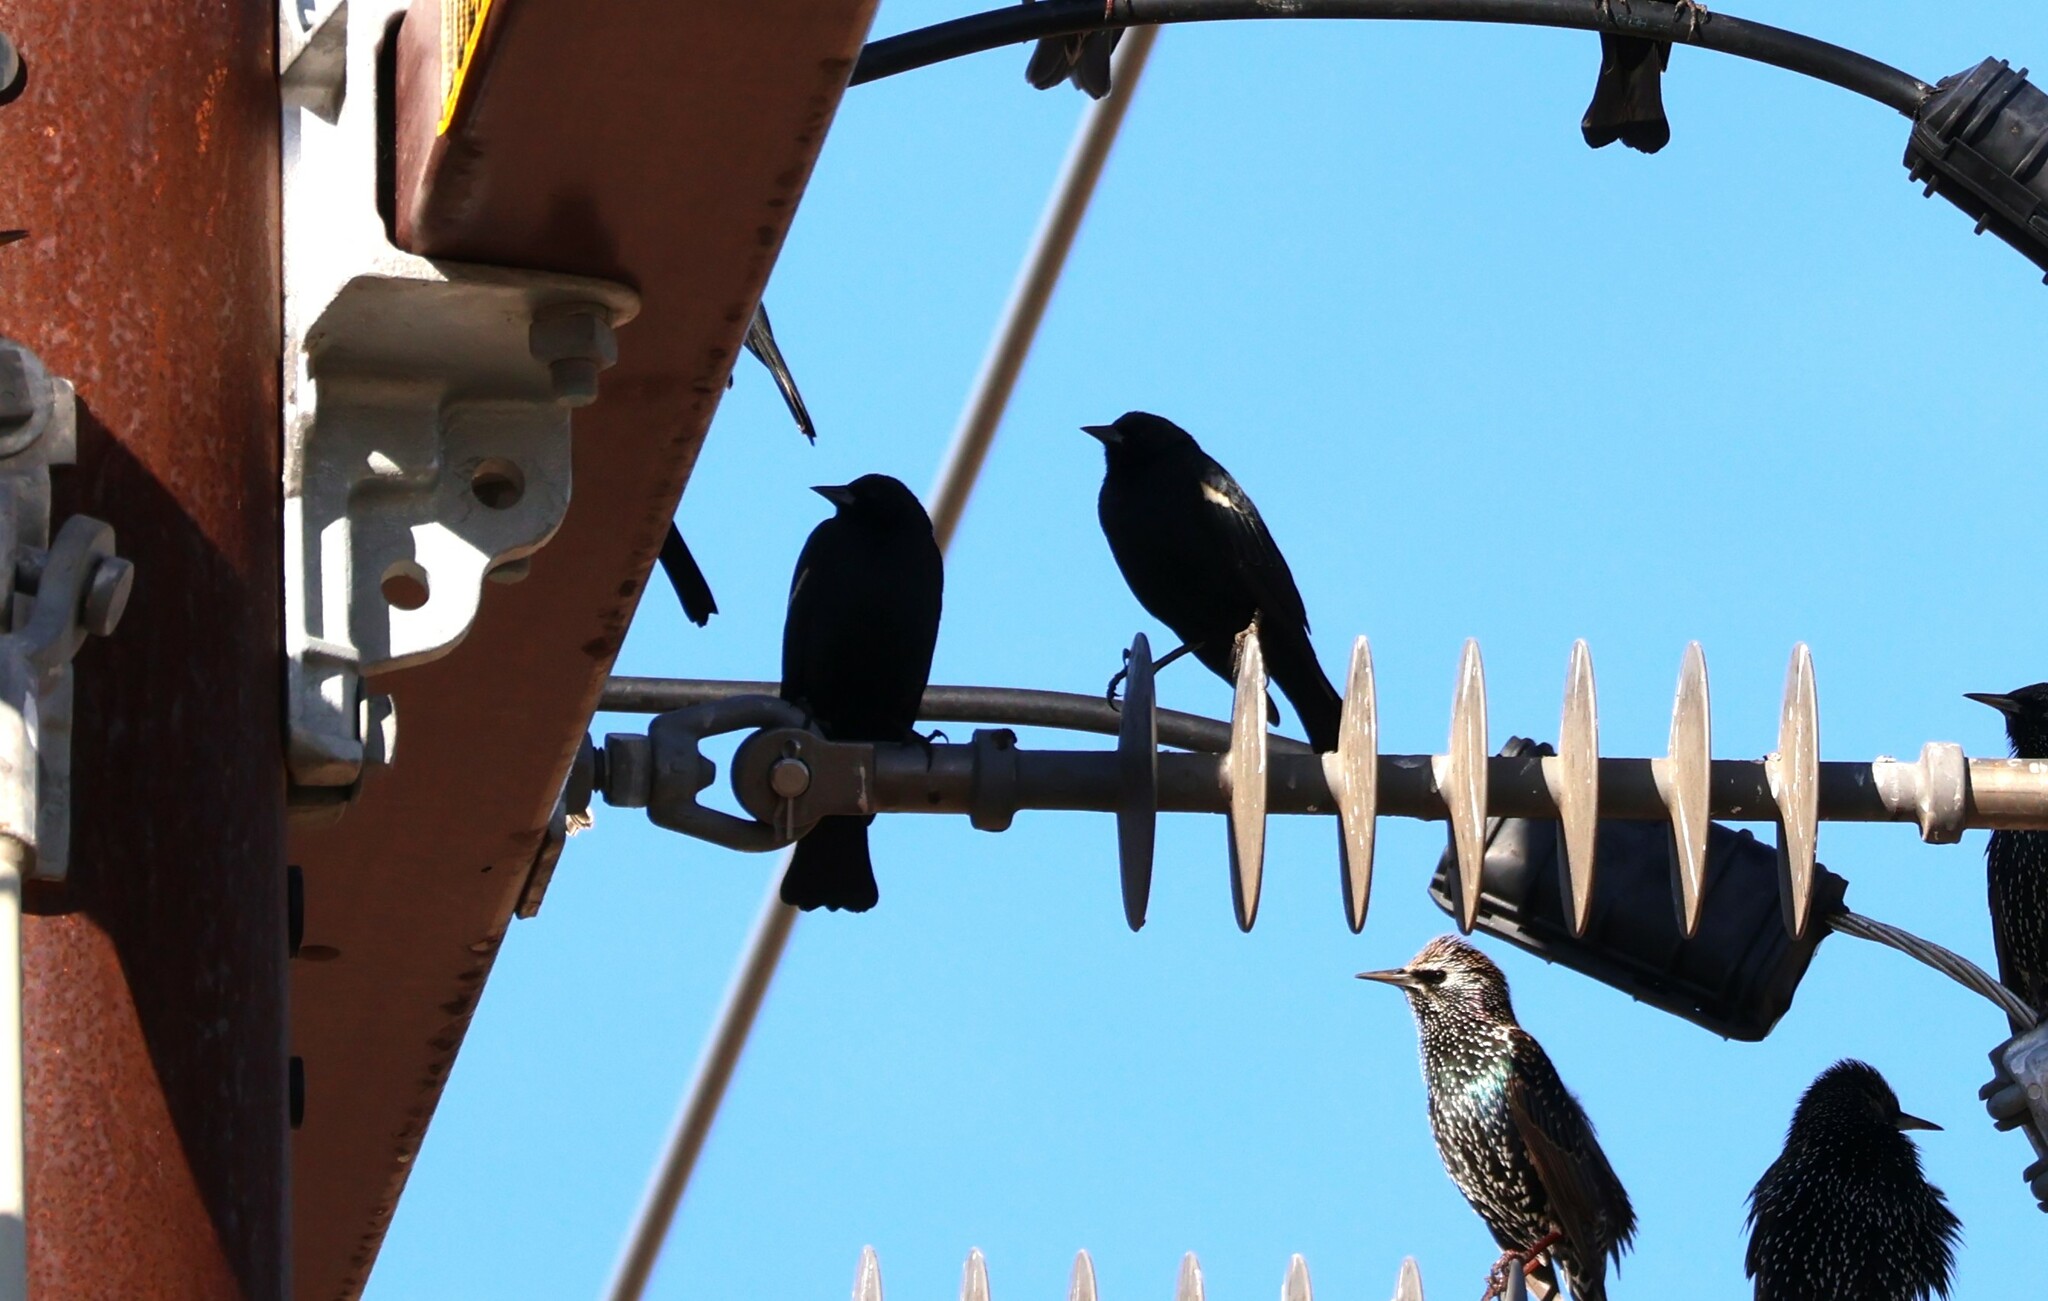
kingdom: Animalia
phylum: Chordata
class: Aves
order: Passeriformes
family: Icteridae
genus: Agelaius
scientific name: Agelaius tricolor
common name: Tricolored blackbird
